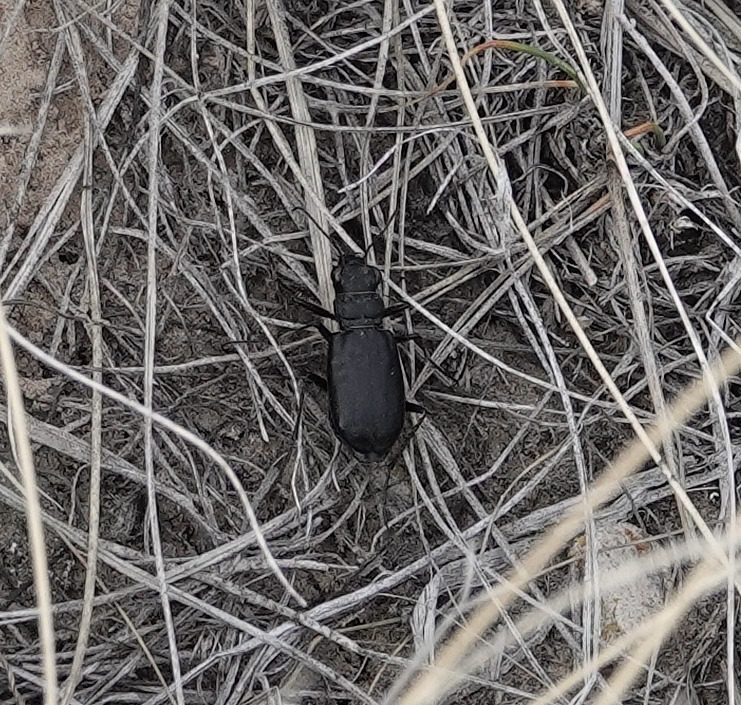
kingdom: Animalia
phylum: Arthropoda
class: Insecta
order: Coleoptera
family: Carabidae
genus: Cicindela
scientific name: Cicindela nebraskana
